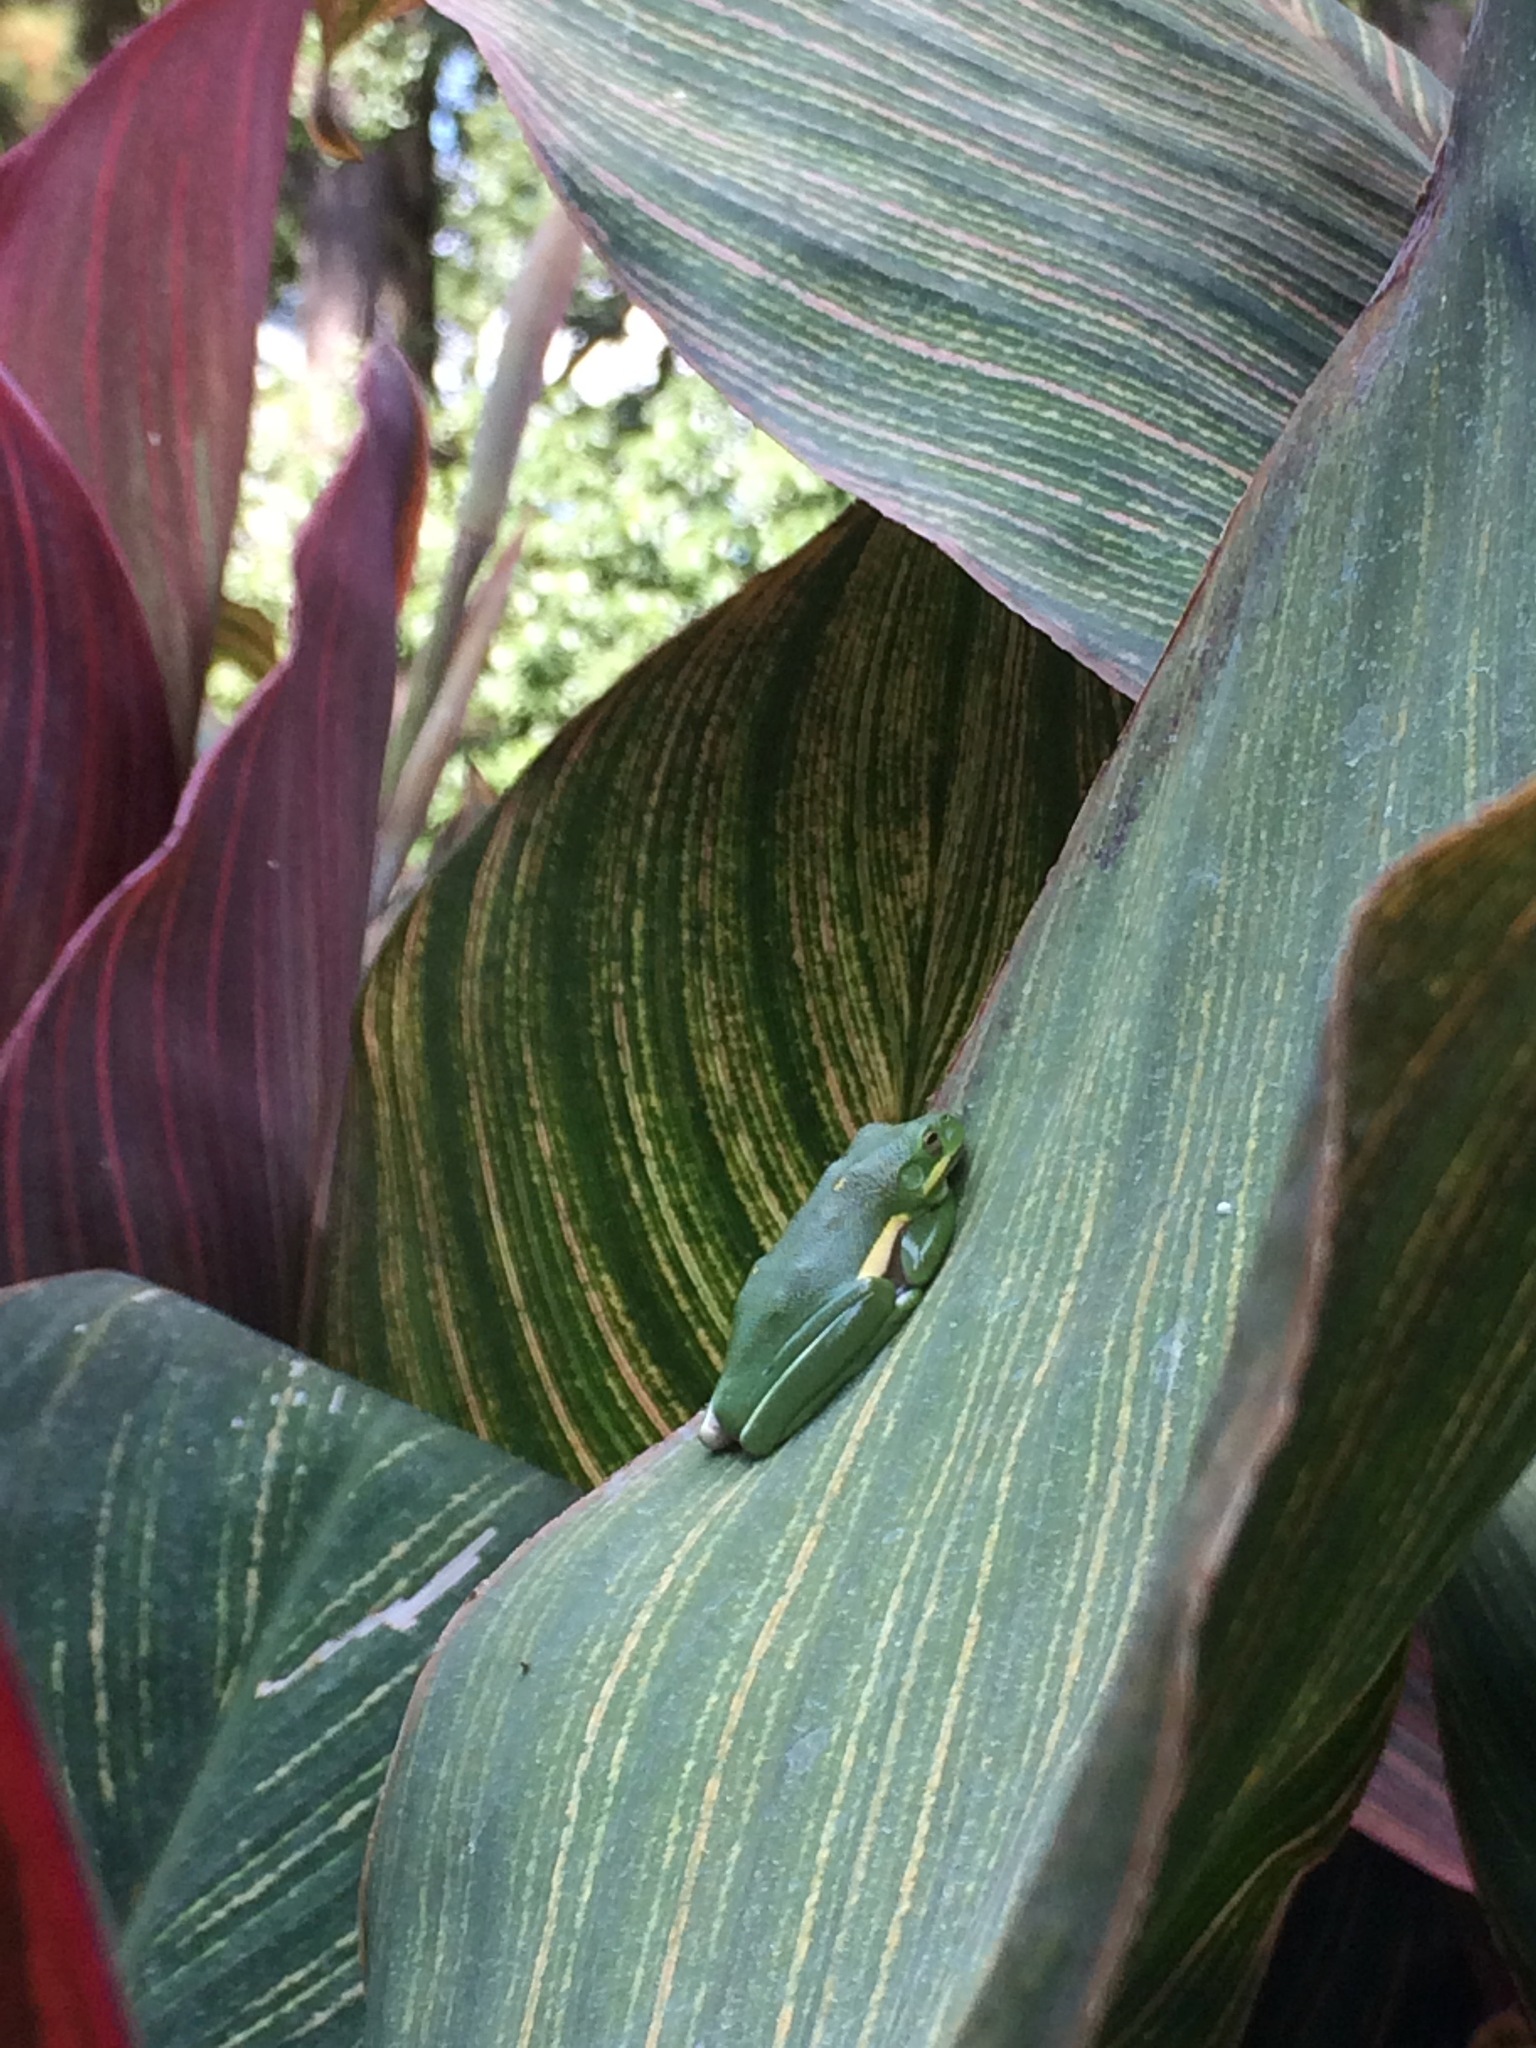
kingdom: Animalia
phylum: Chordata
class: Amphibia
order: Anura
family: Hylidae
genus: Dryophytes
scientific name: Dryophytes cinereus
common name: Green treefrog
